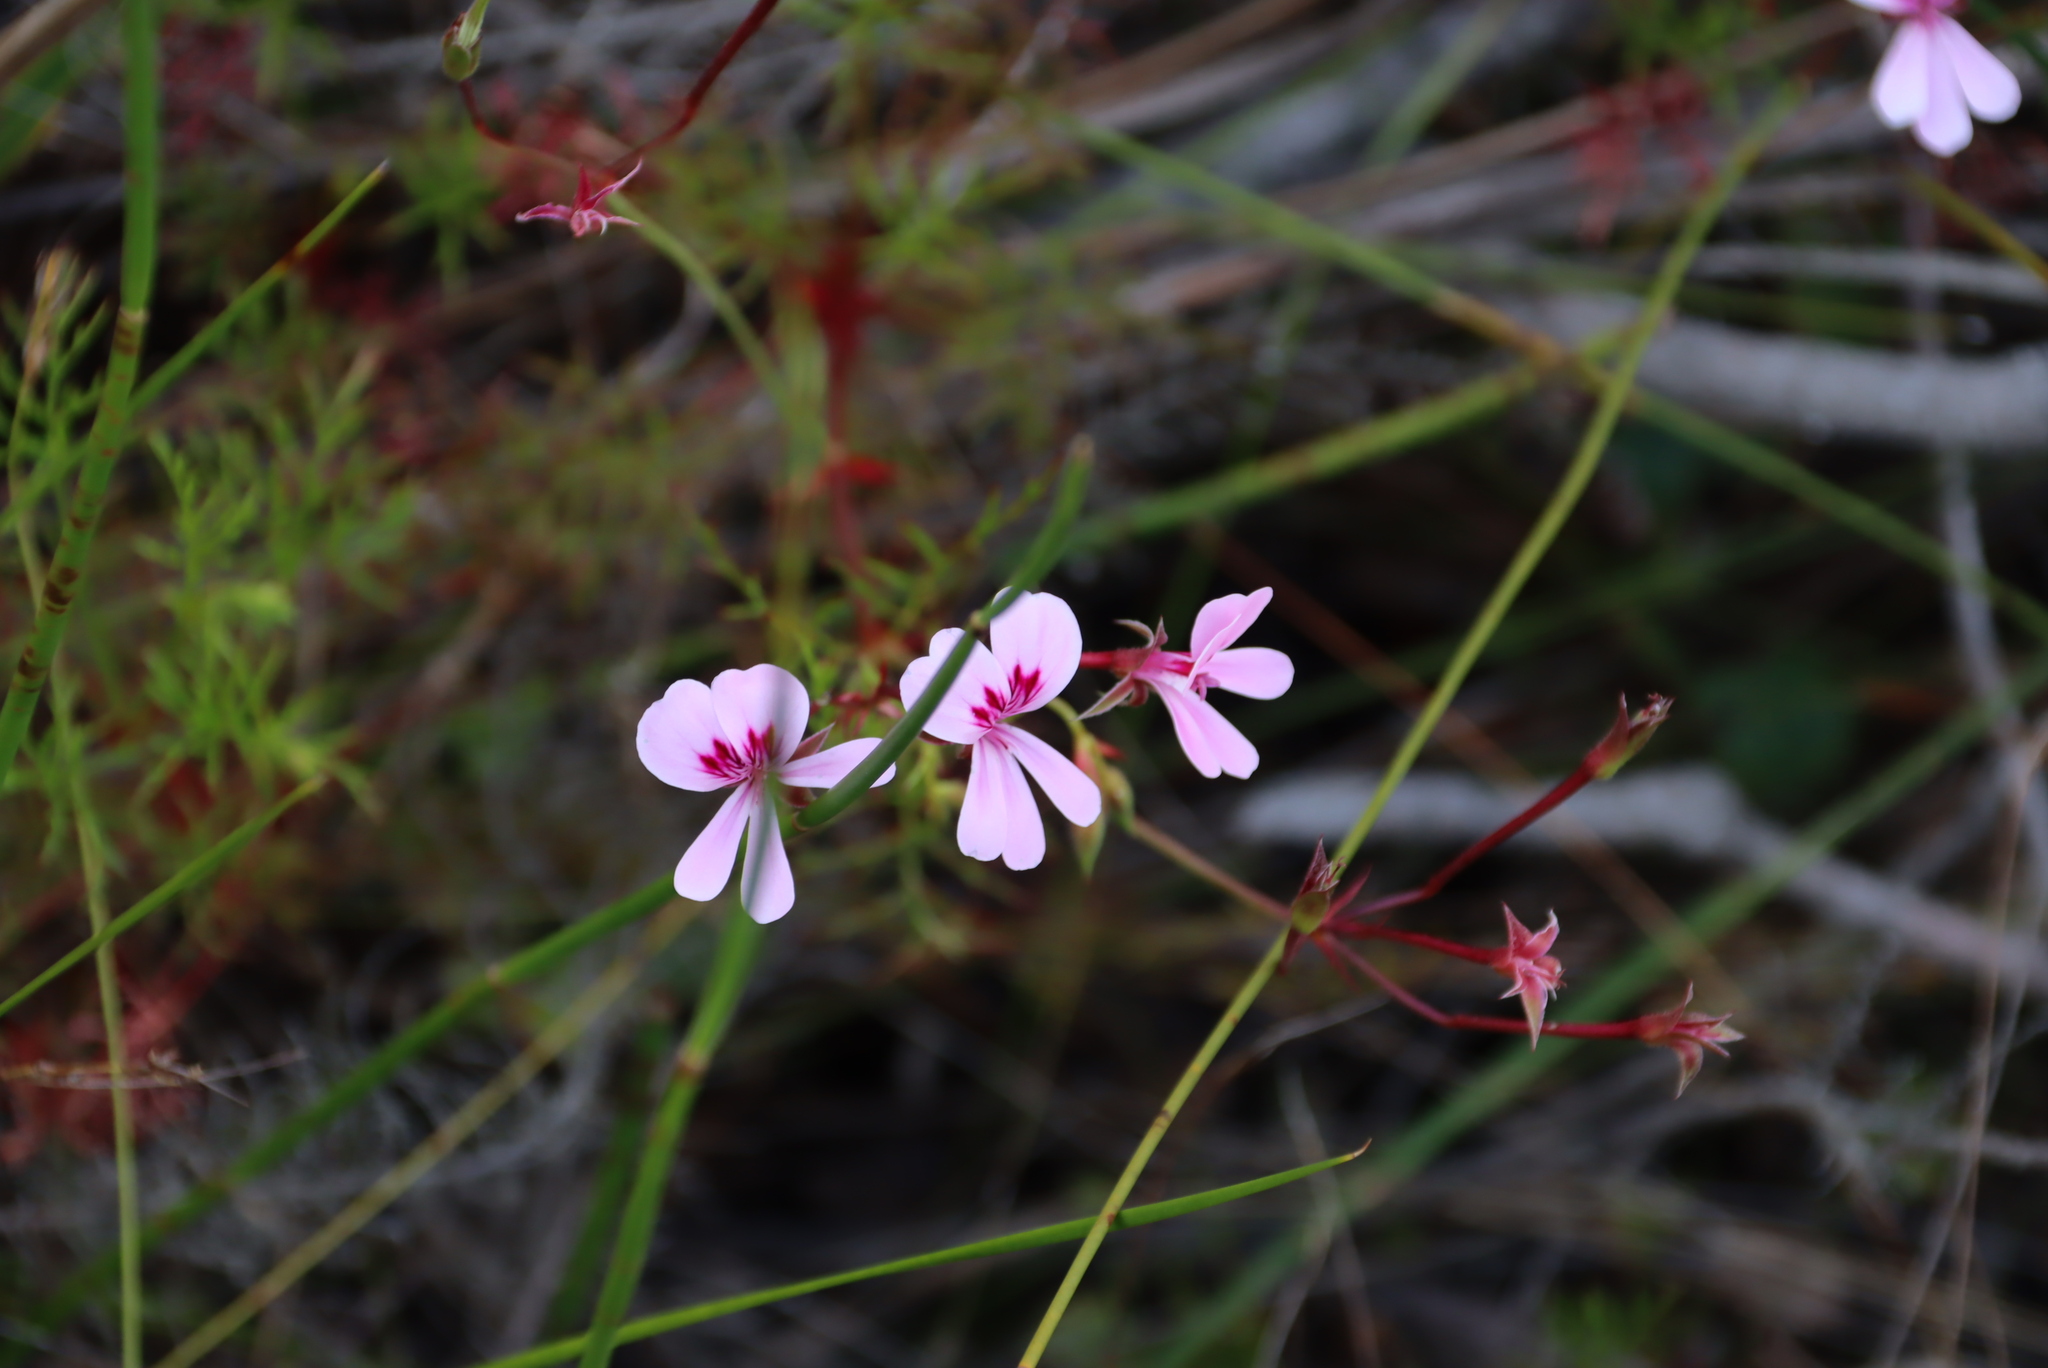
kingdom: Plantae
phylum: Tracheophyta
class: Magnoliopsida
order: Geraniales
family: Geraniaceae
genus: Pelargonium
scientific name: Pelargonium patulum
